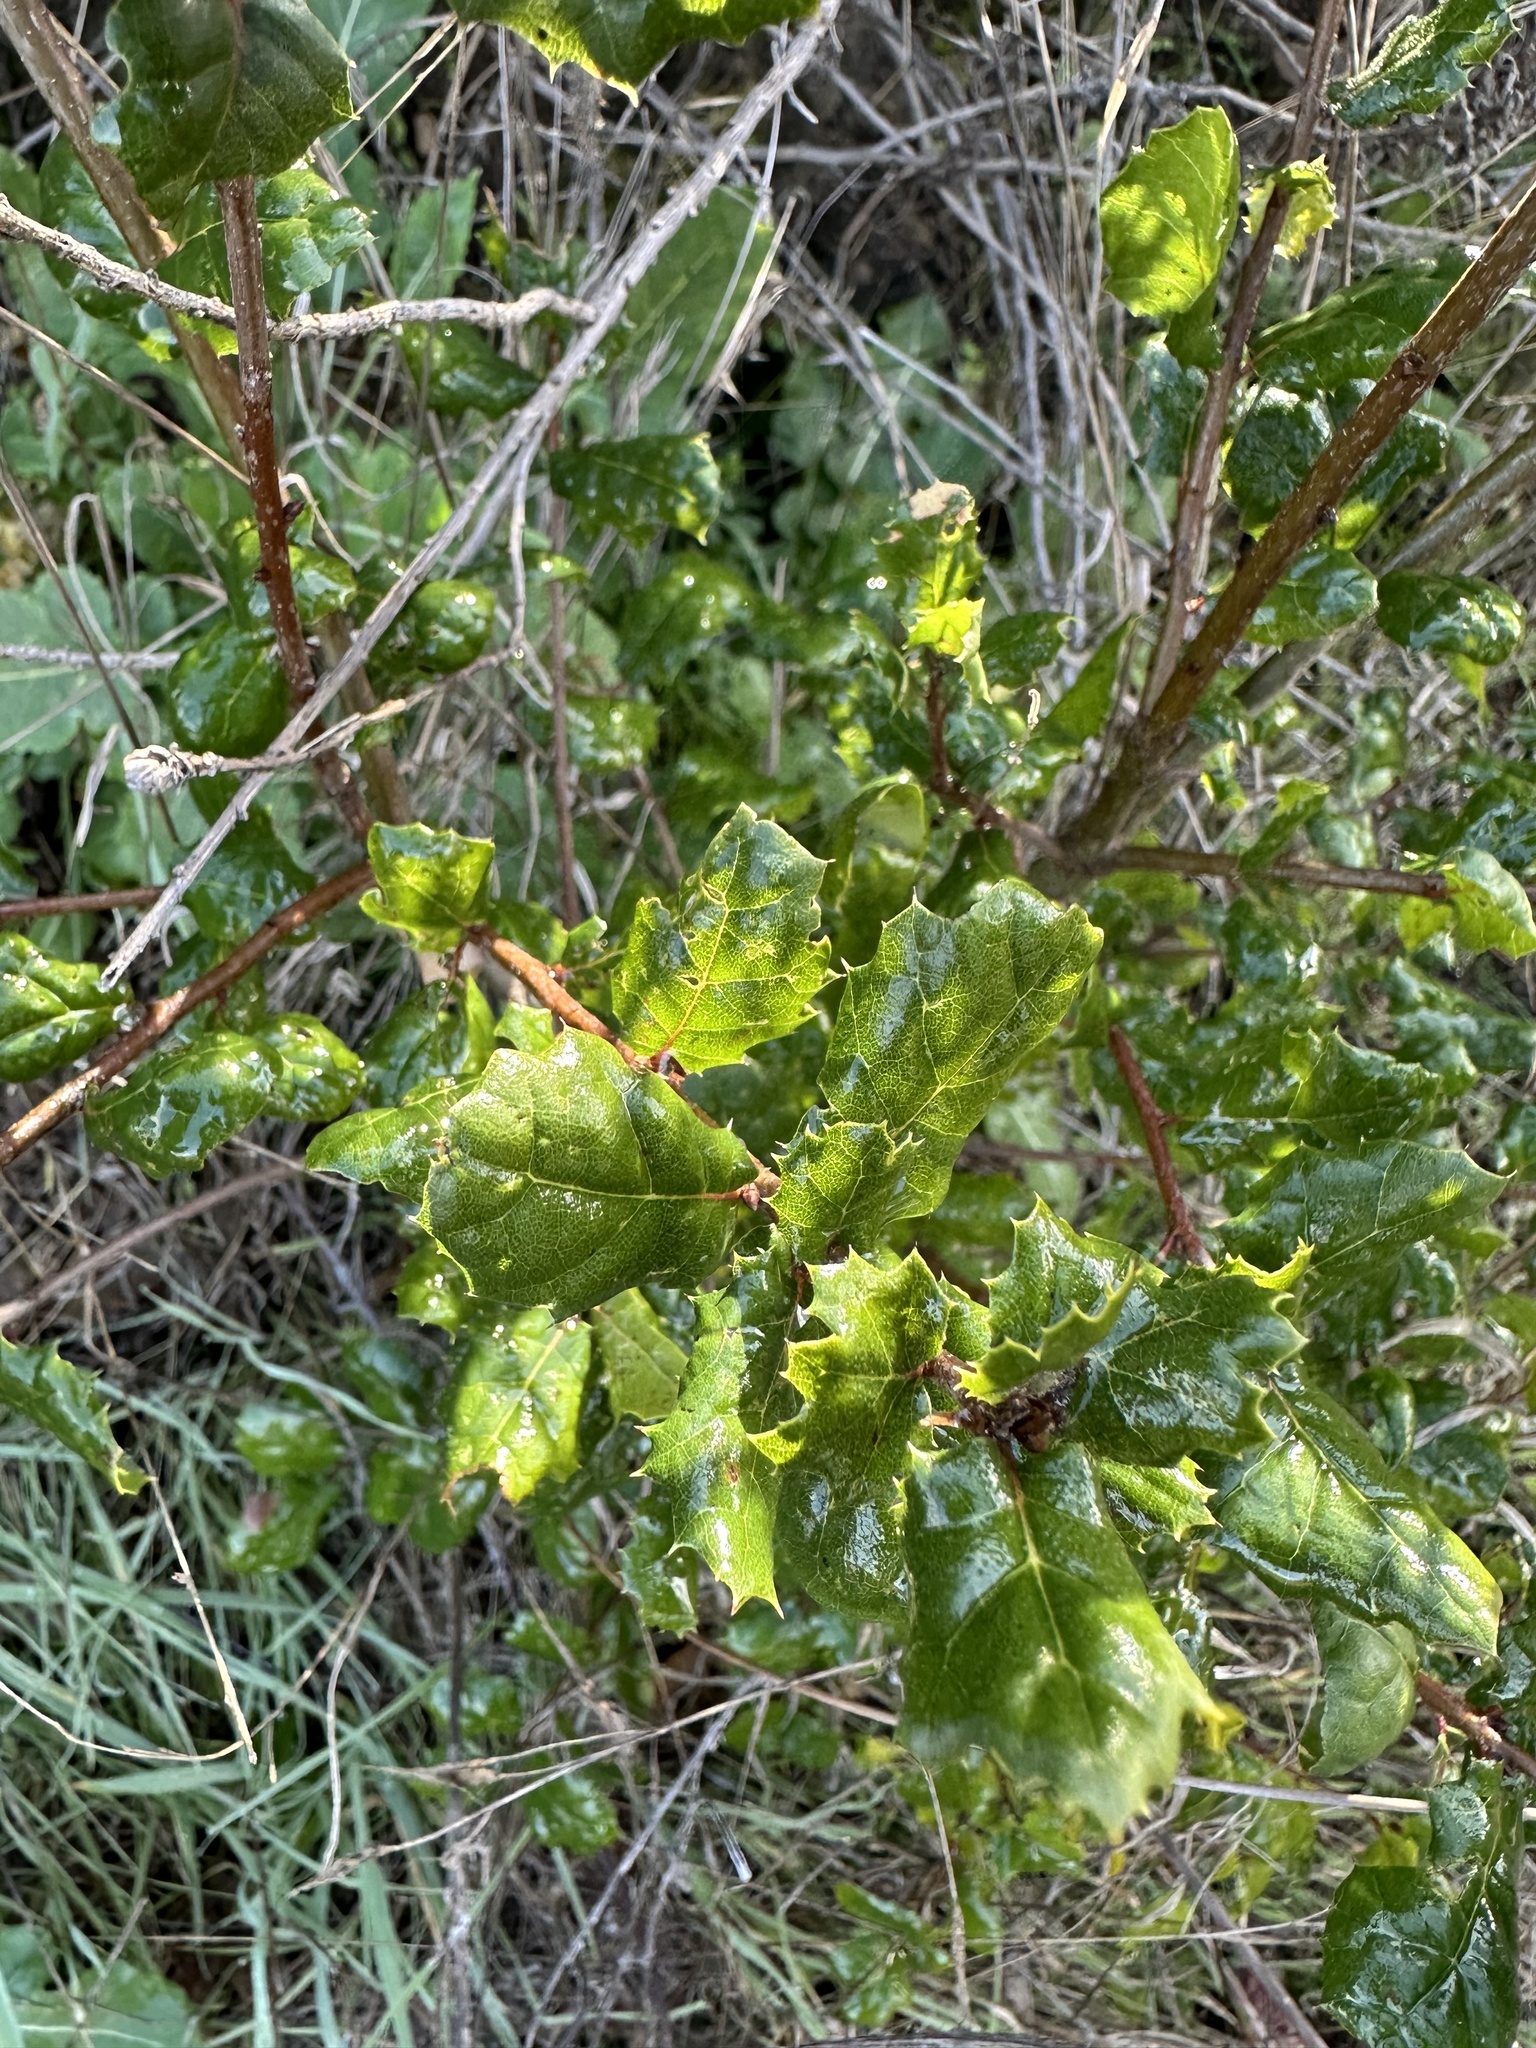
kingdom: Plantae
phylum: Tracheophyta
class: Magnoliopsida
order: Fagales
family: Fagaceae
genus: Quercus
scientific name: Quercus agrifolia
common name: California live oak
